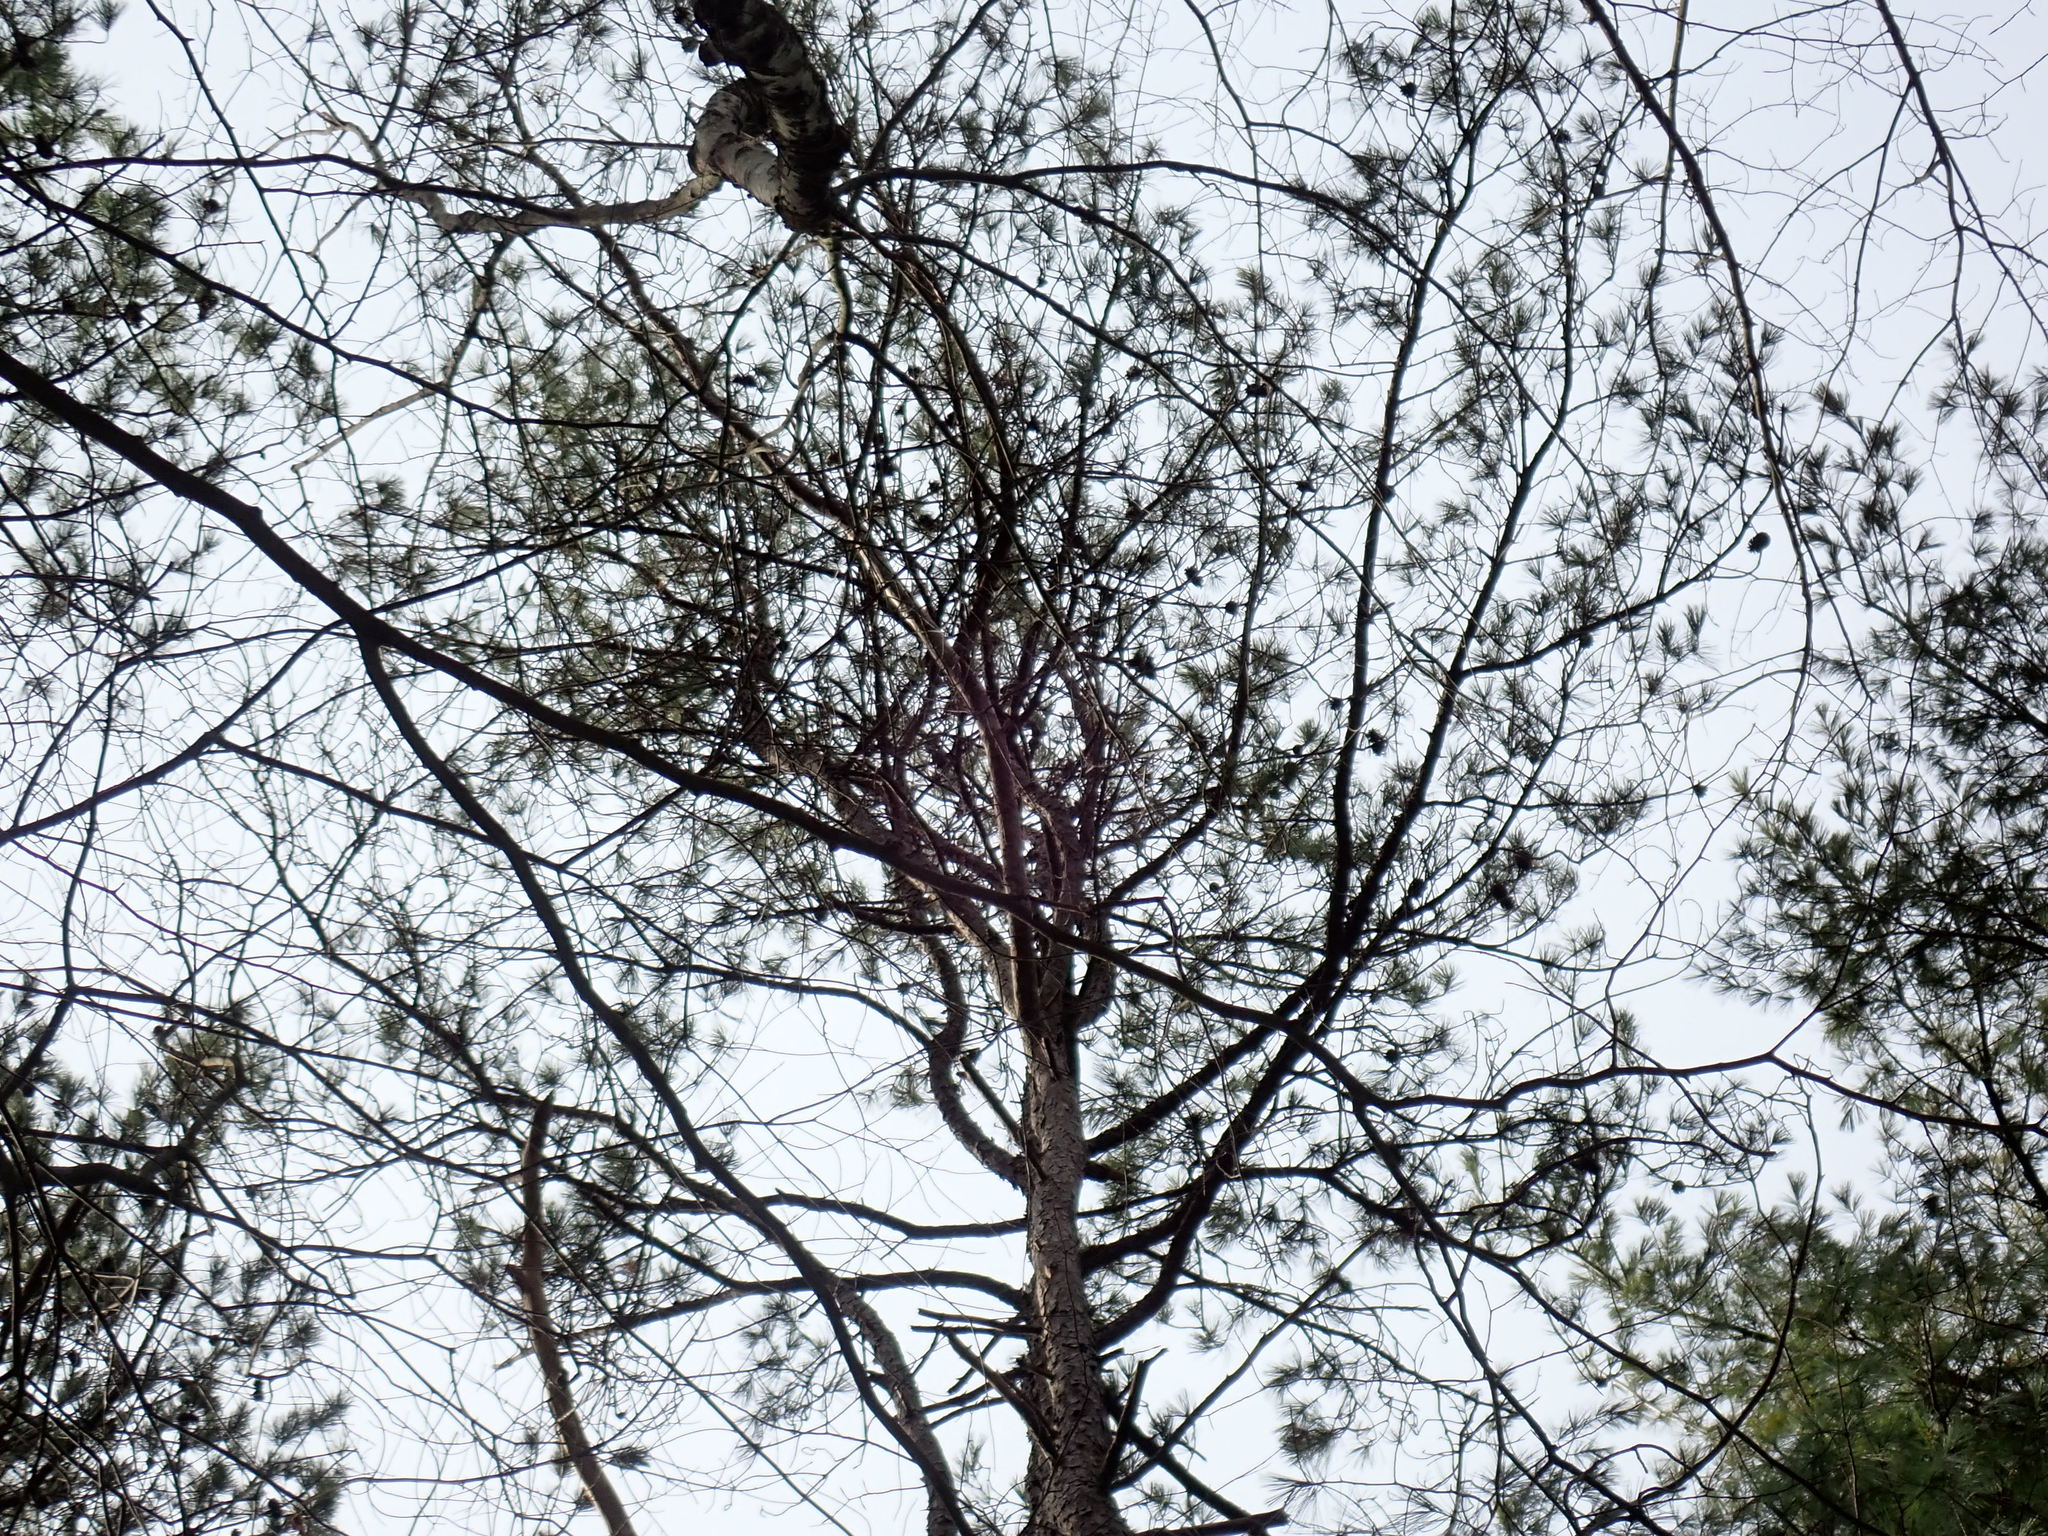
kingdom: Plantae
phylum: Tracheophyta
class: Pinopsida
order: Pinales
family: Pinaceae
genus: Pinus
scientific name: Pinus rigida
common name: Pitch pine
